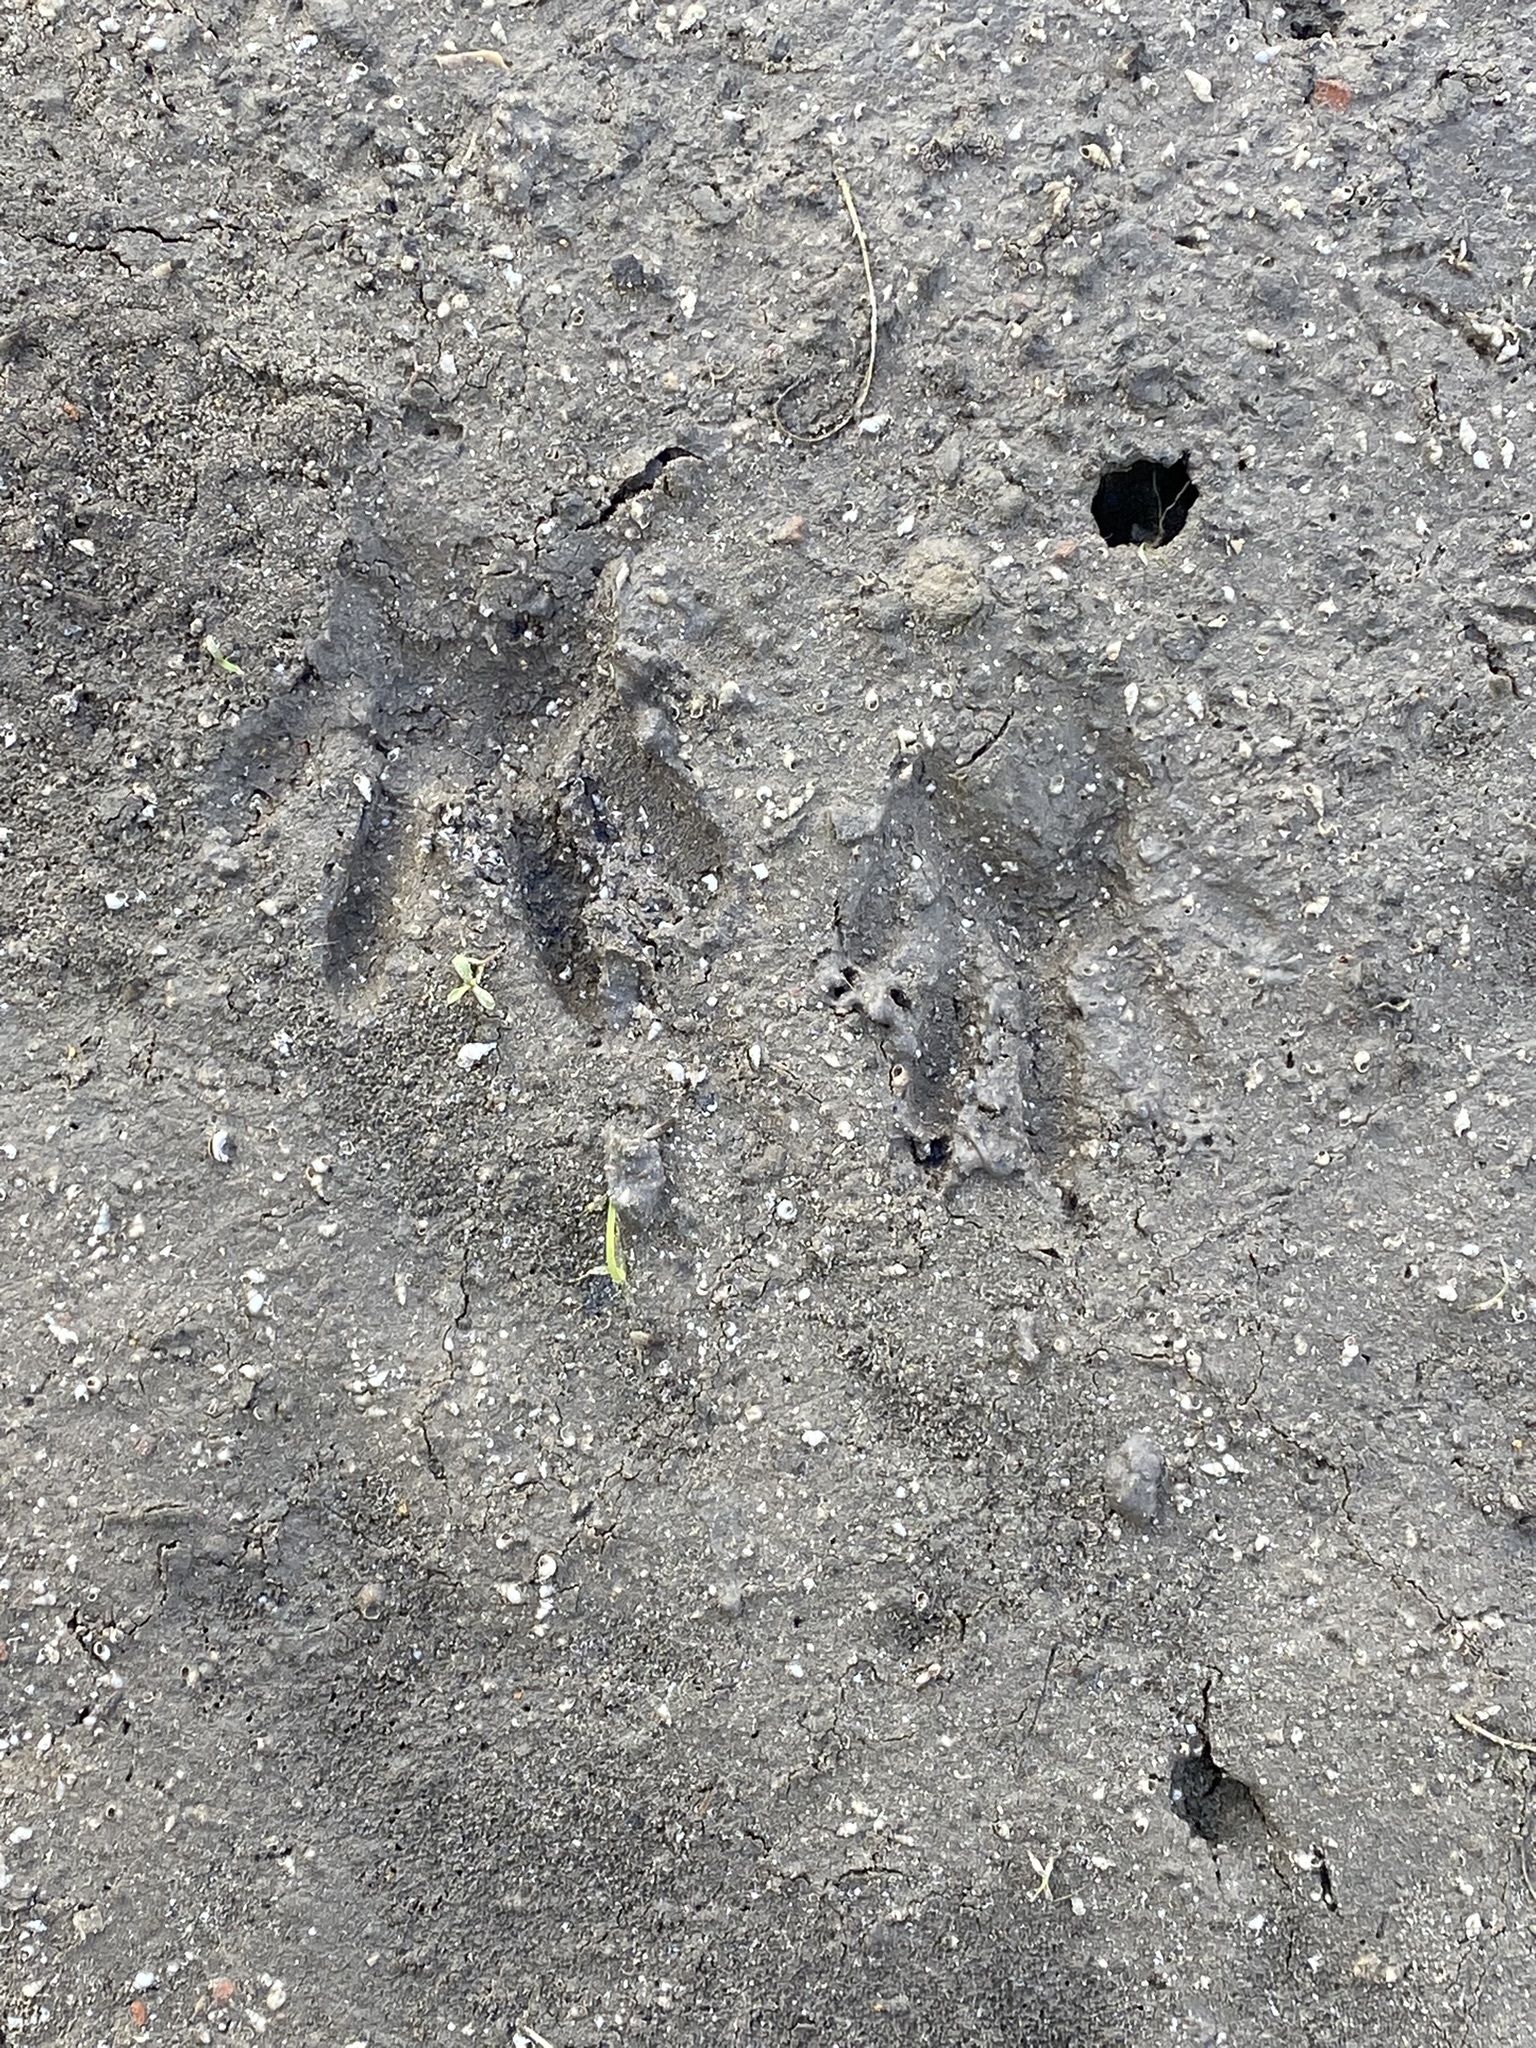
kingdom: Animalia
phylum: Chordata
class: Mammalia
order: Carnivora
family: Procyonidae
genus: Procyon
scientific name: Procyon cancrivorus
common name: Crab-eating raccoon
